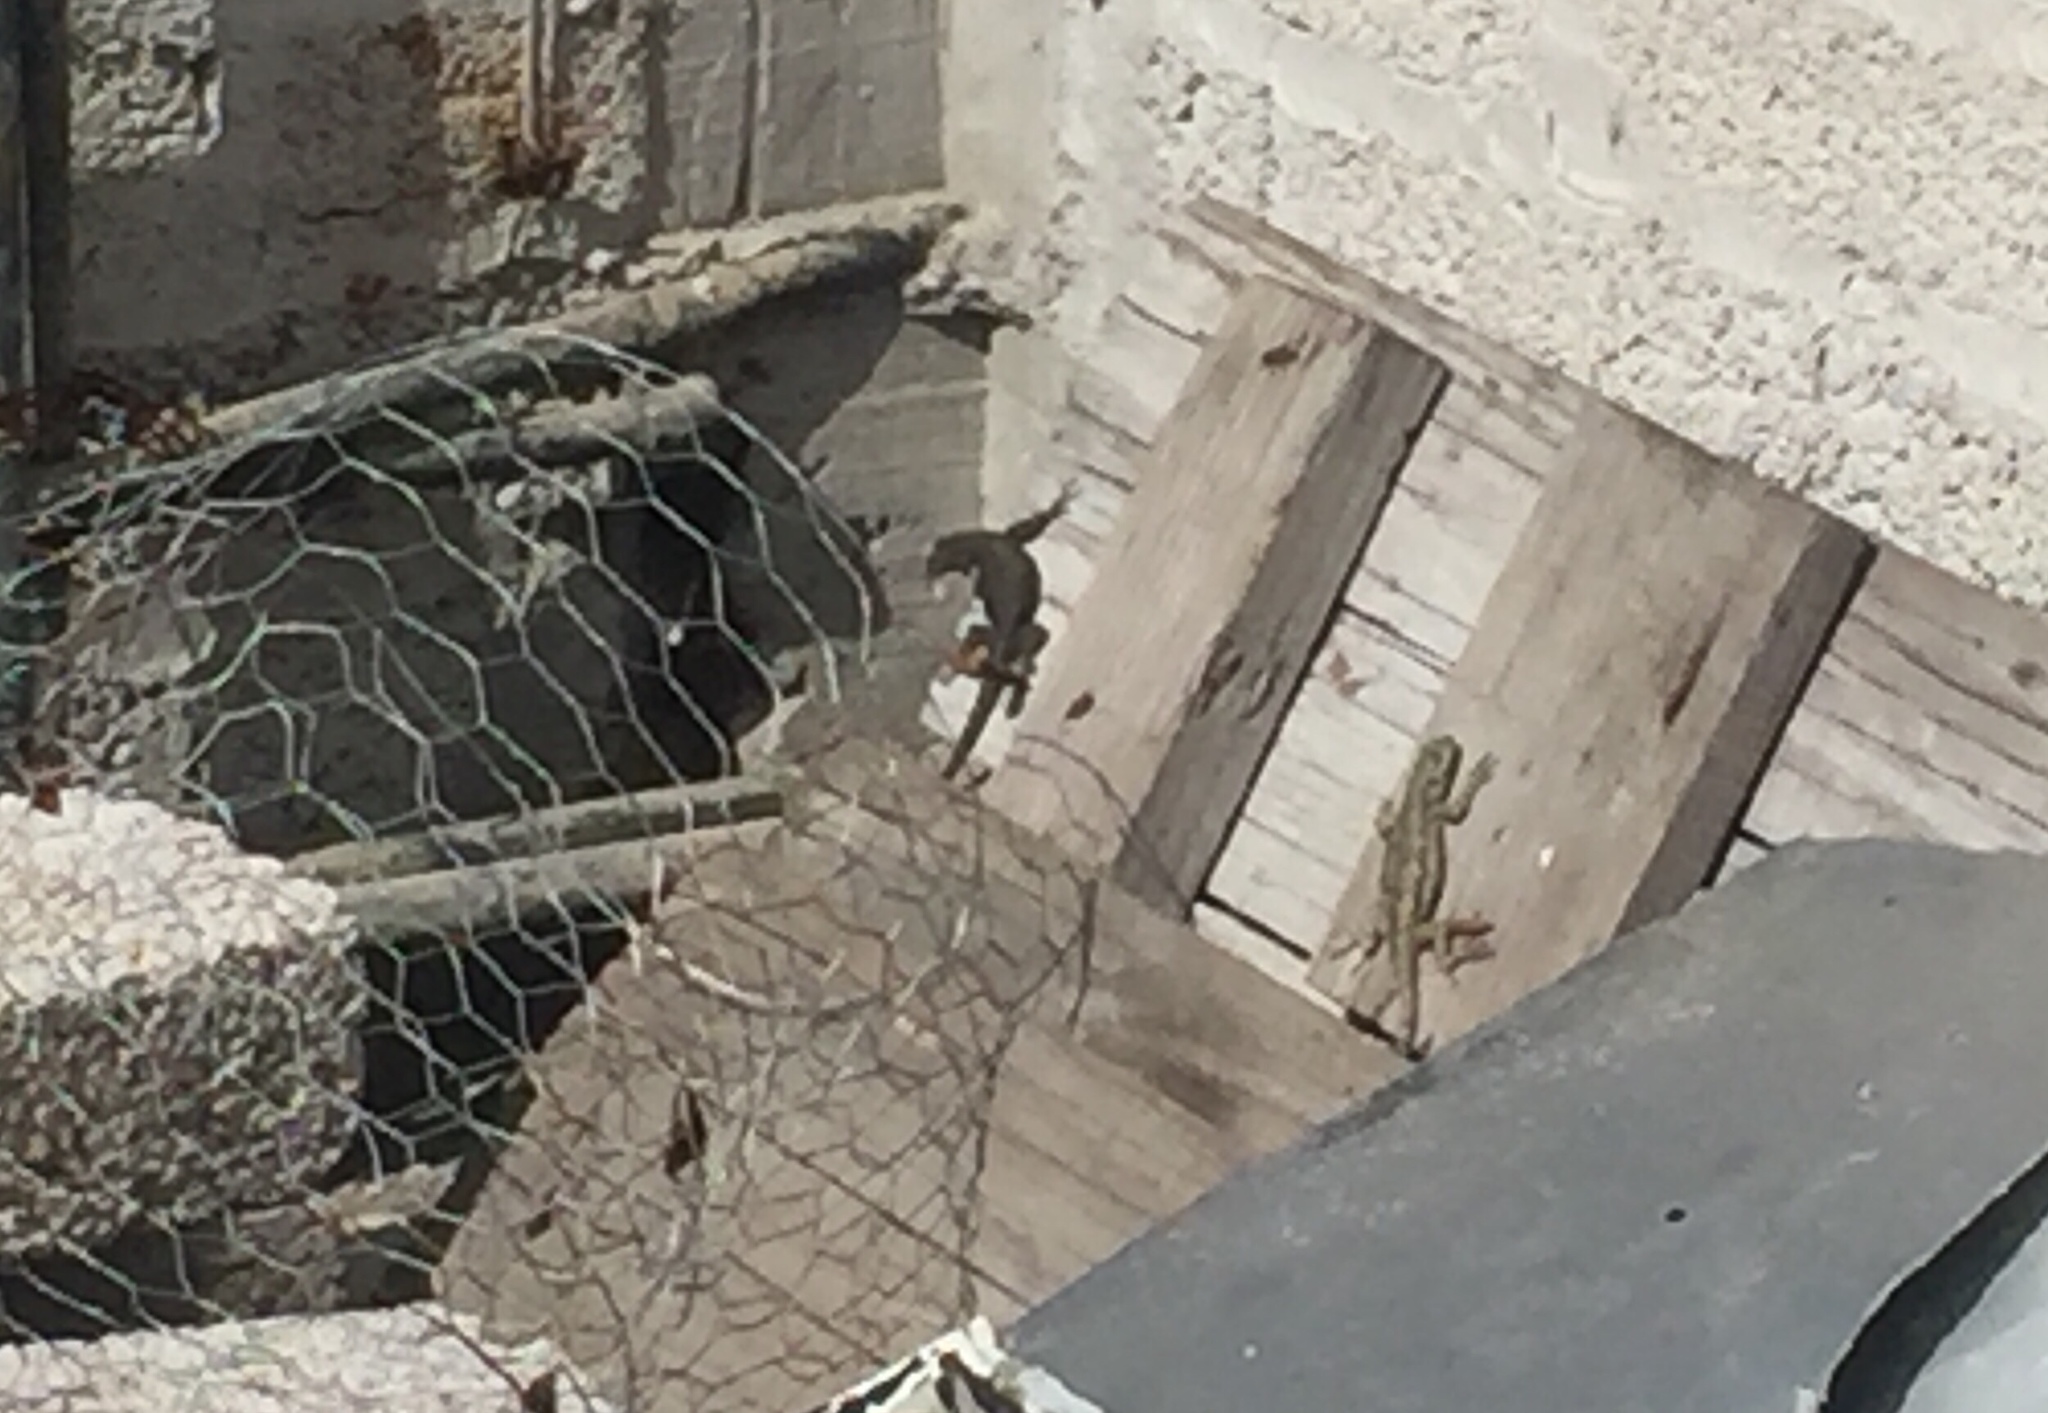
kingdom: Animalia
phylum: Chordata
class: Squamata
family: Phrynosomatidae
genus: Sceloporus
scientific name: Sceloporus grammicus
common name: Mesquite lizard
